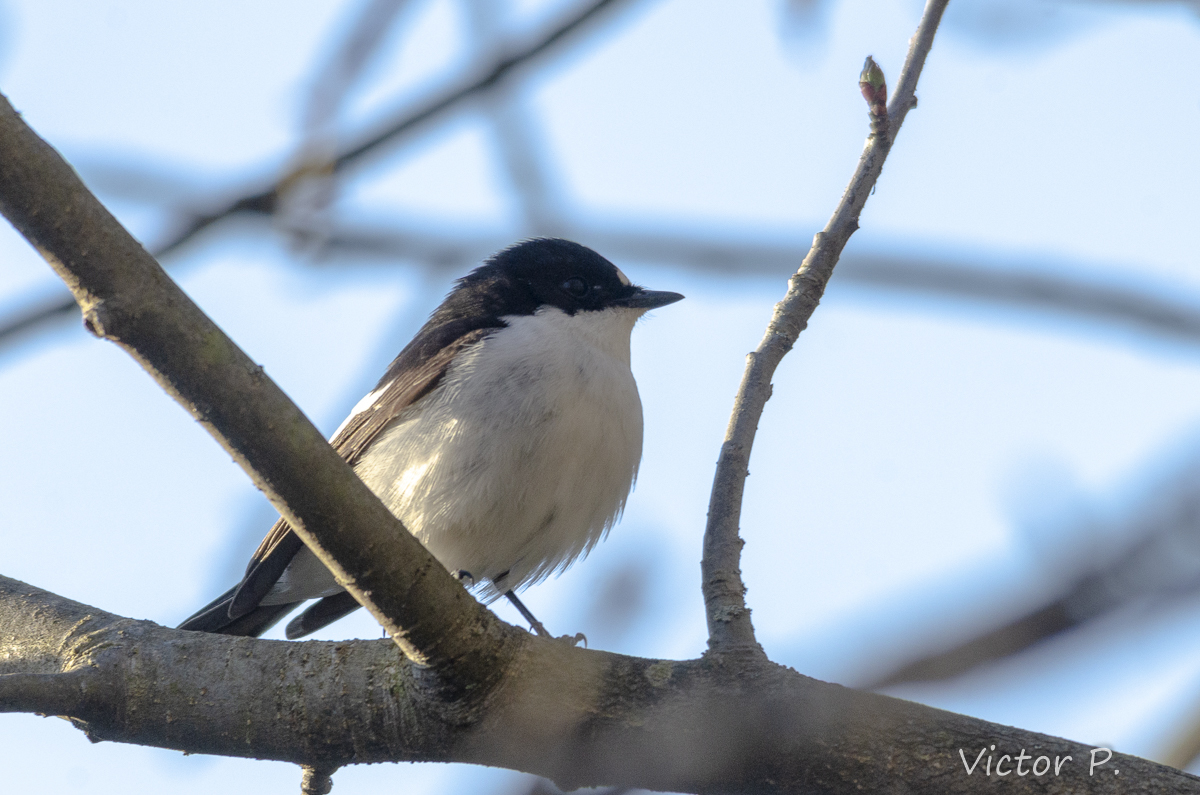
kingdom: Animalia
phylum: Chordata
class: Aves
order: Passeriformes
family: Muscicapidae
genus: Ficedula
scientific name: Ficedula hypoleuca
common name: European pied flycatcher
